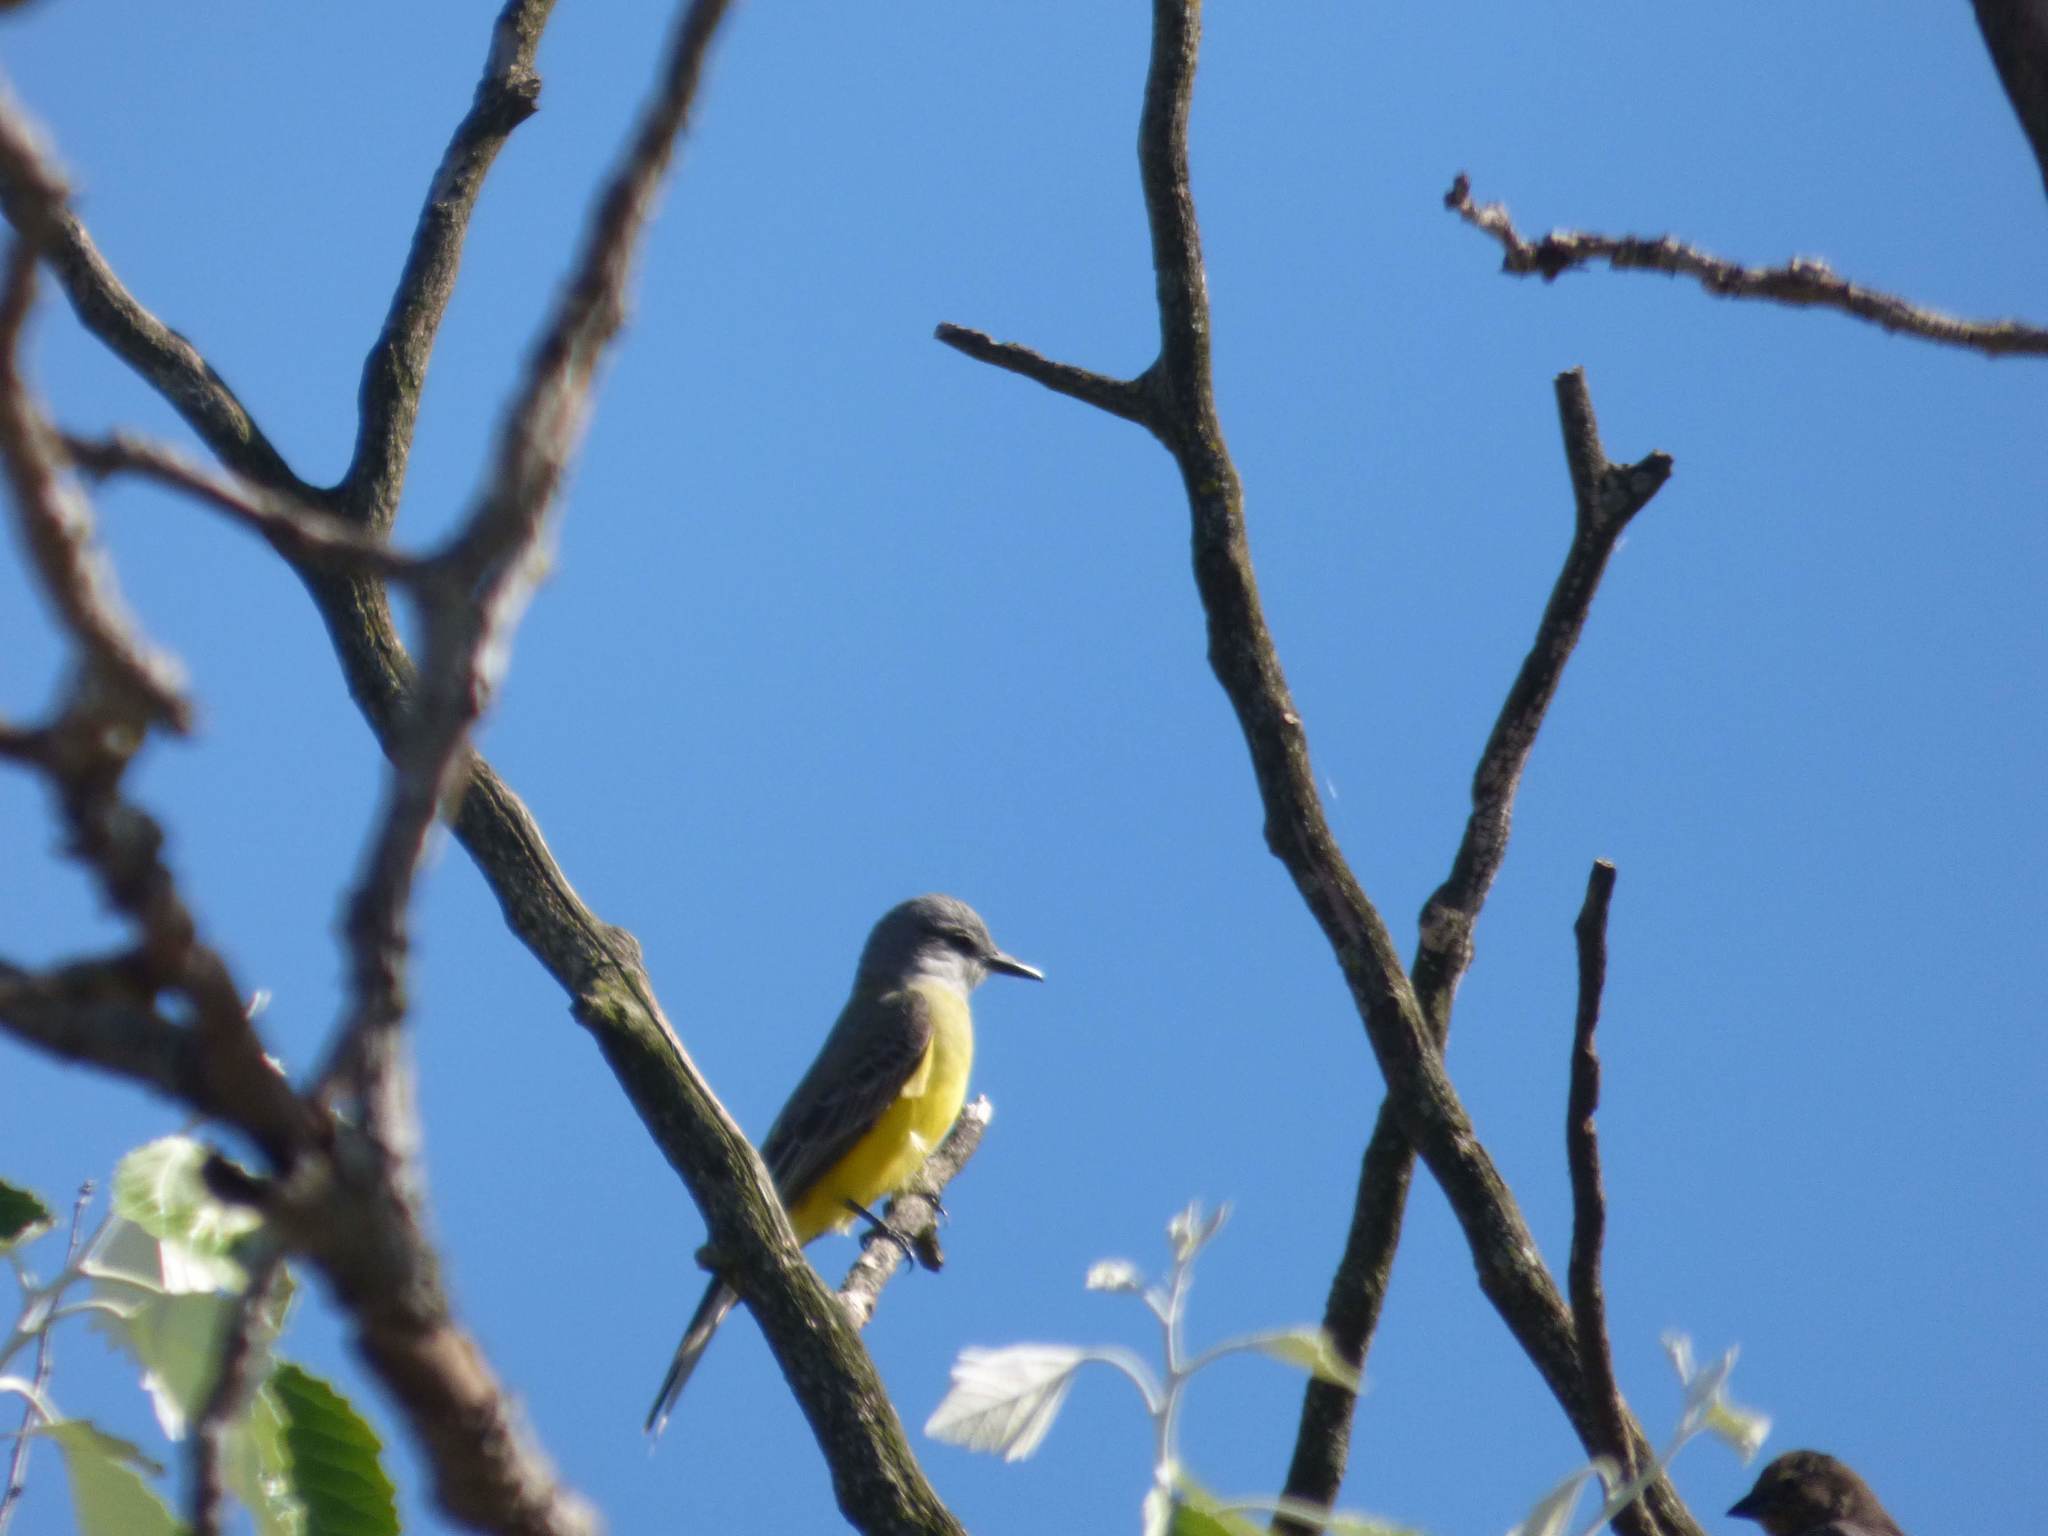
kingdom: Animalia
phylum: Chordata
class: Aves
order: Passeriformes
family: Tyrannidae
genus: Tyrannus
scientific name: Tyrannus melancholicus
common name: Tropical kingbird
